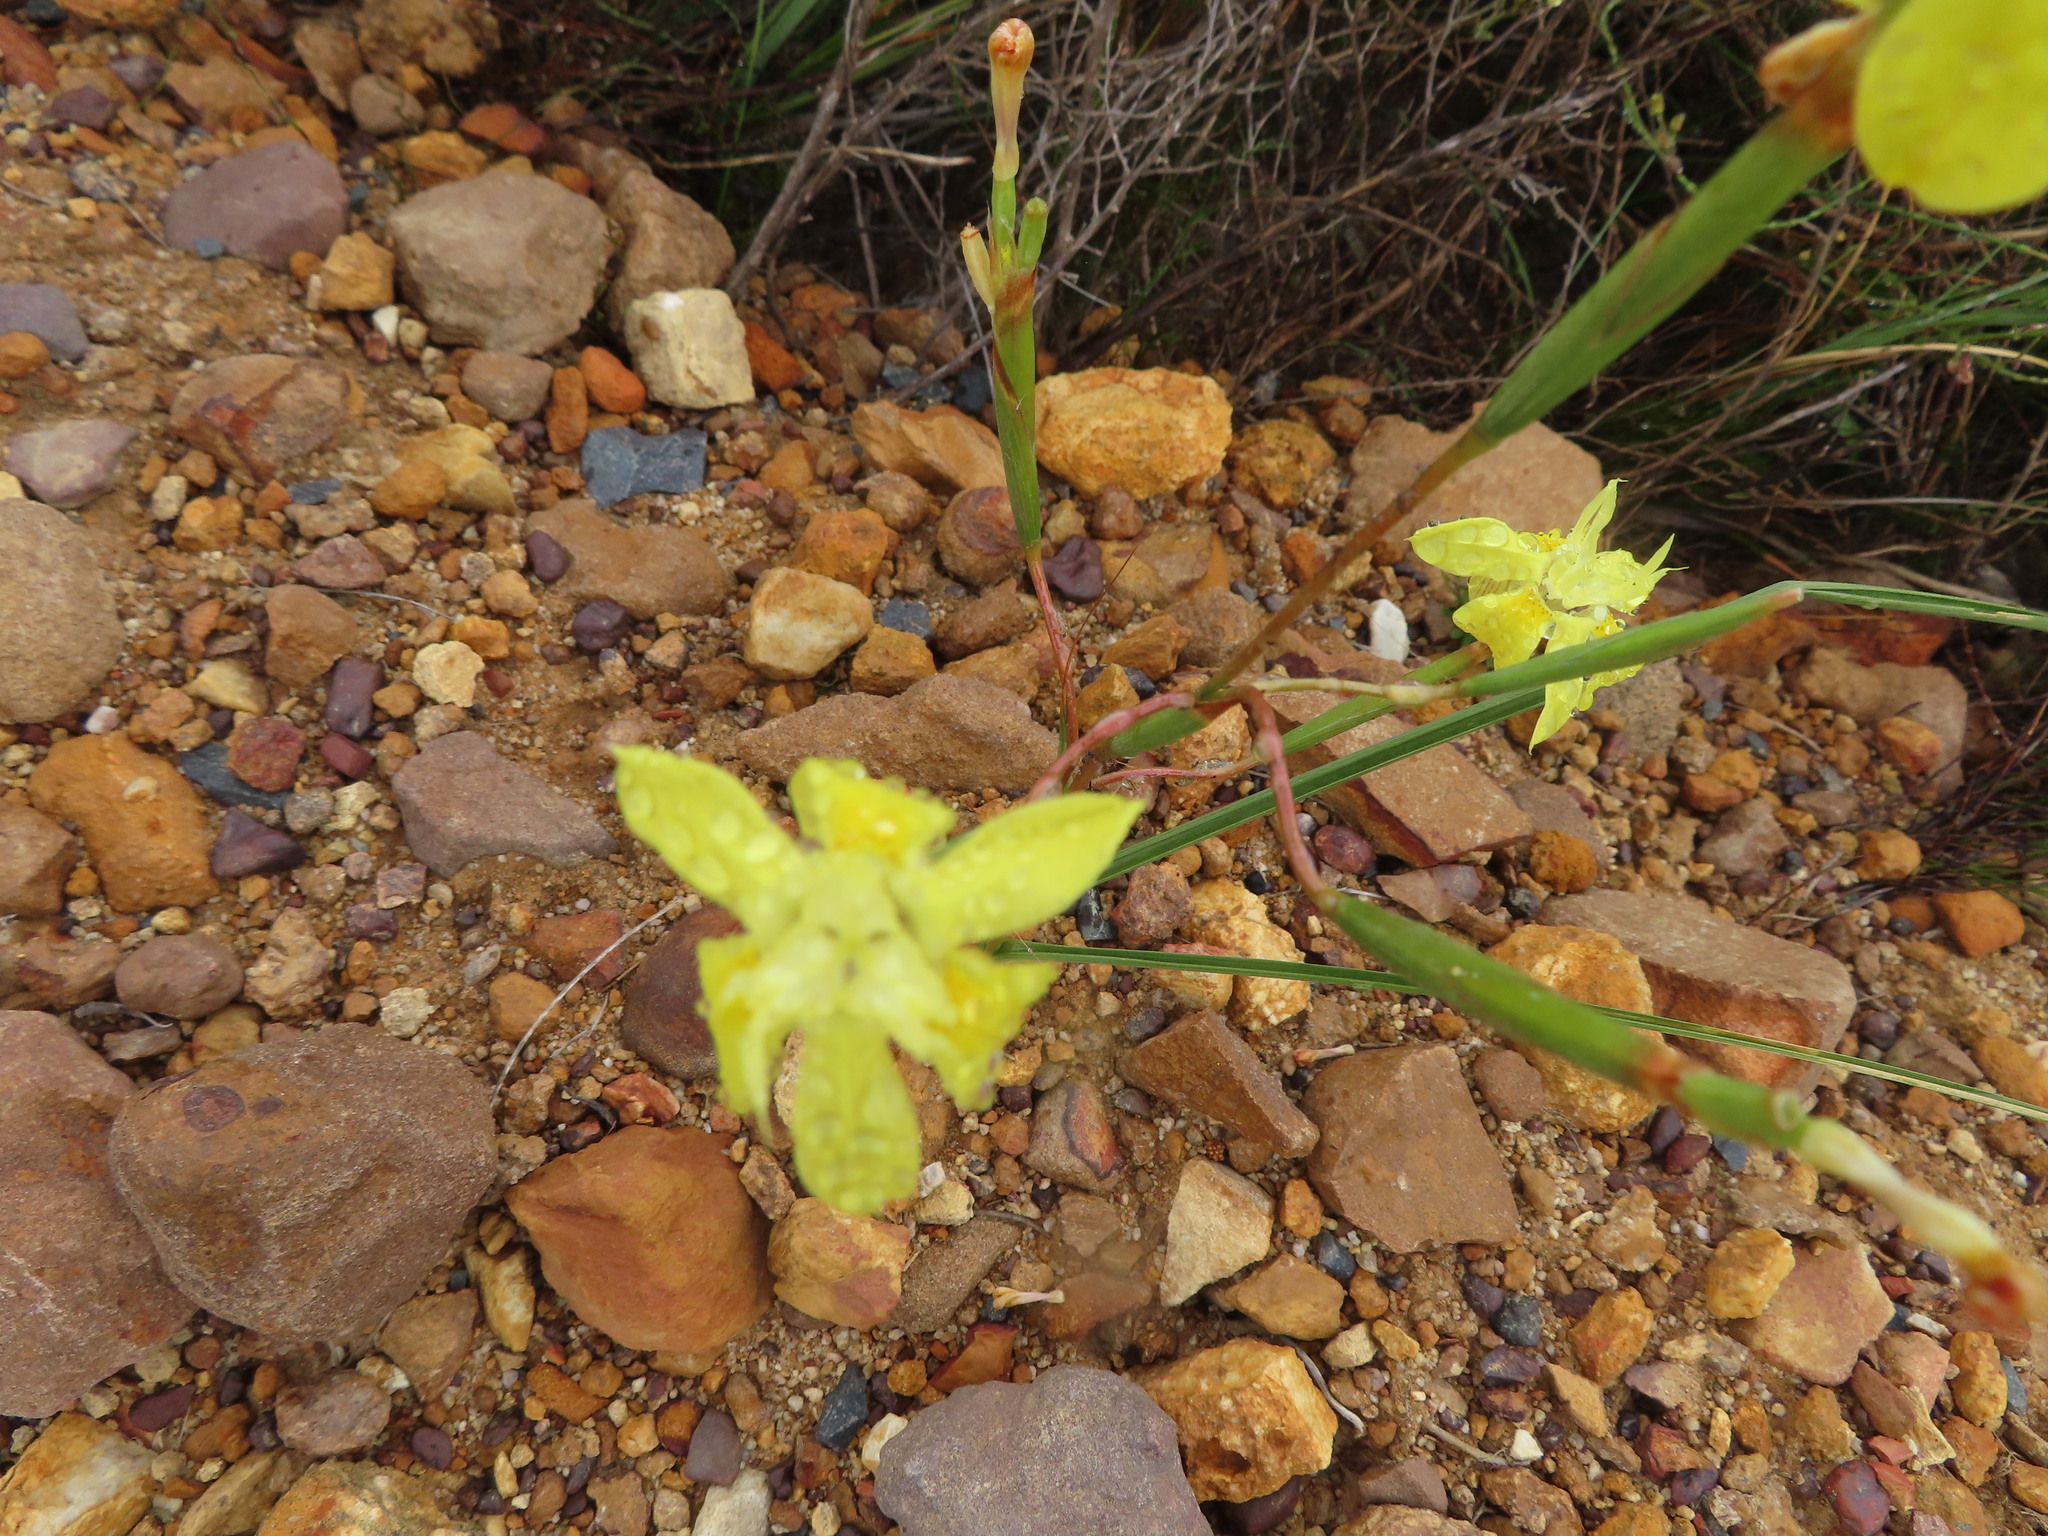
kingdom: Plantae
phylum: Tracheophyta
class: Liliopsida
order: Asparagales
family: Iridaceae
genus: Moraea
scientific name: Moraea bituminosa
